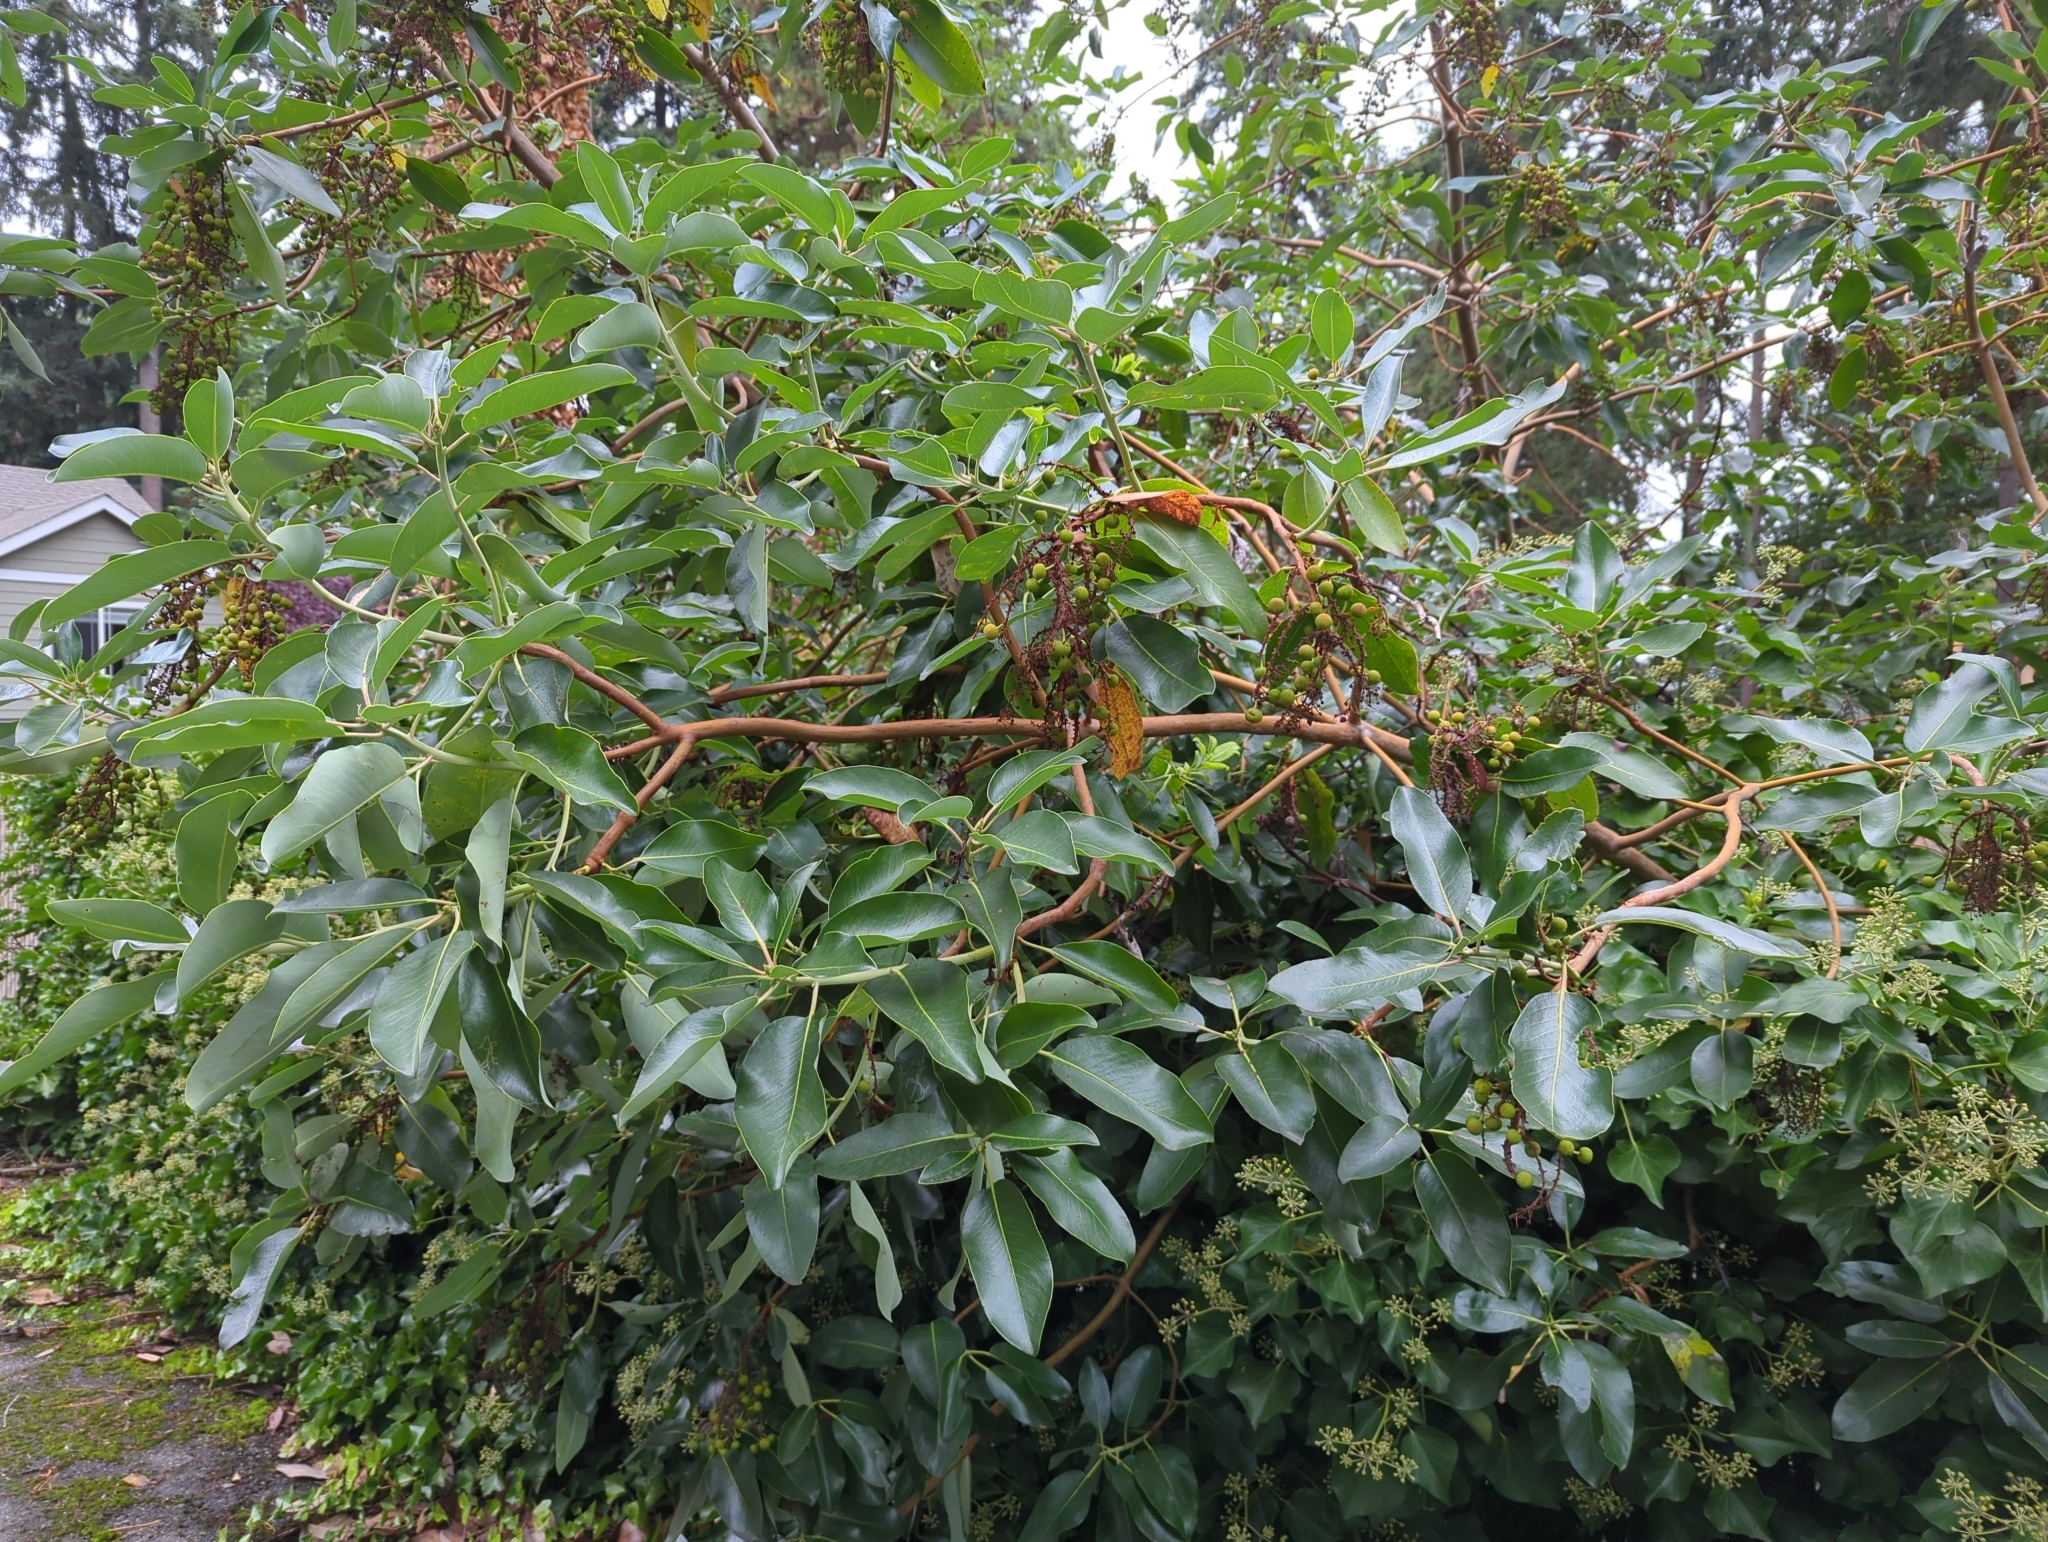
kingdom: Plantae
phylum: Tracheophyta
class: Magnoliopsida
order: Ericales
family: Ericaceae
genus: Arbutus
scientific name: Arbutus menziesii
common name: Pacific madrone
